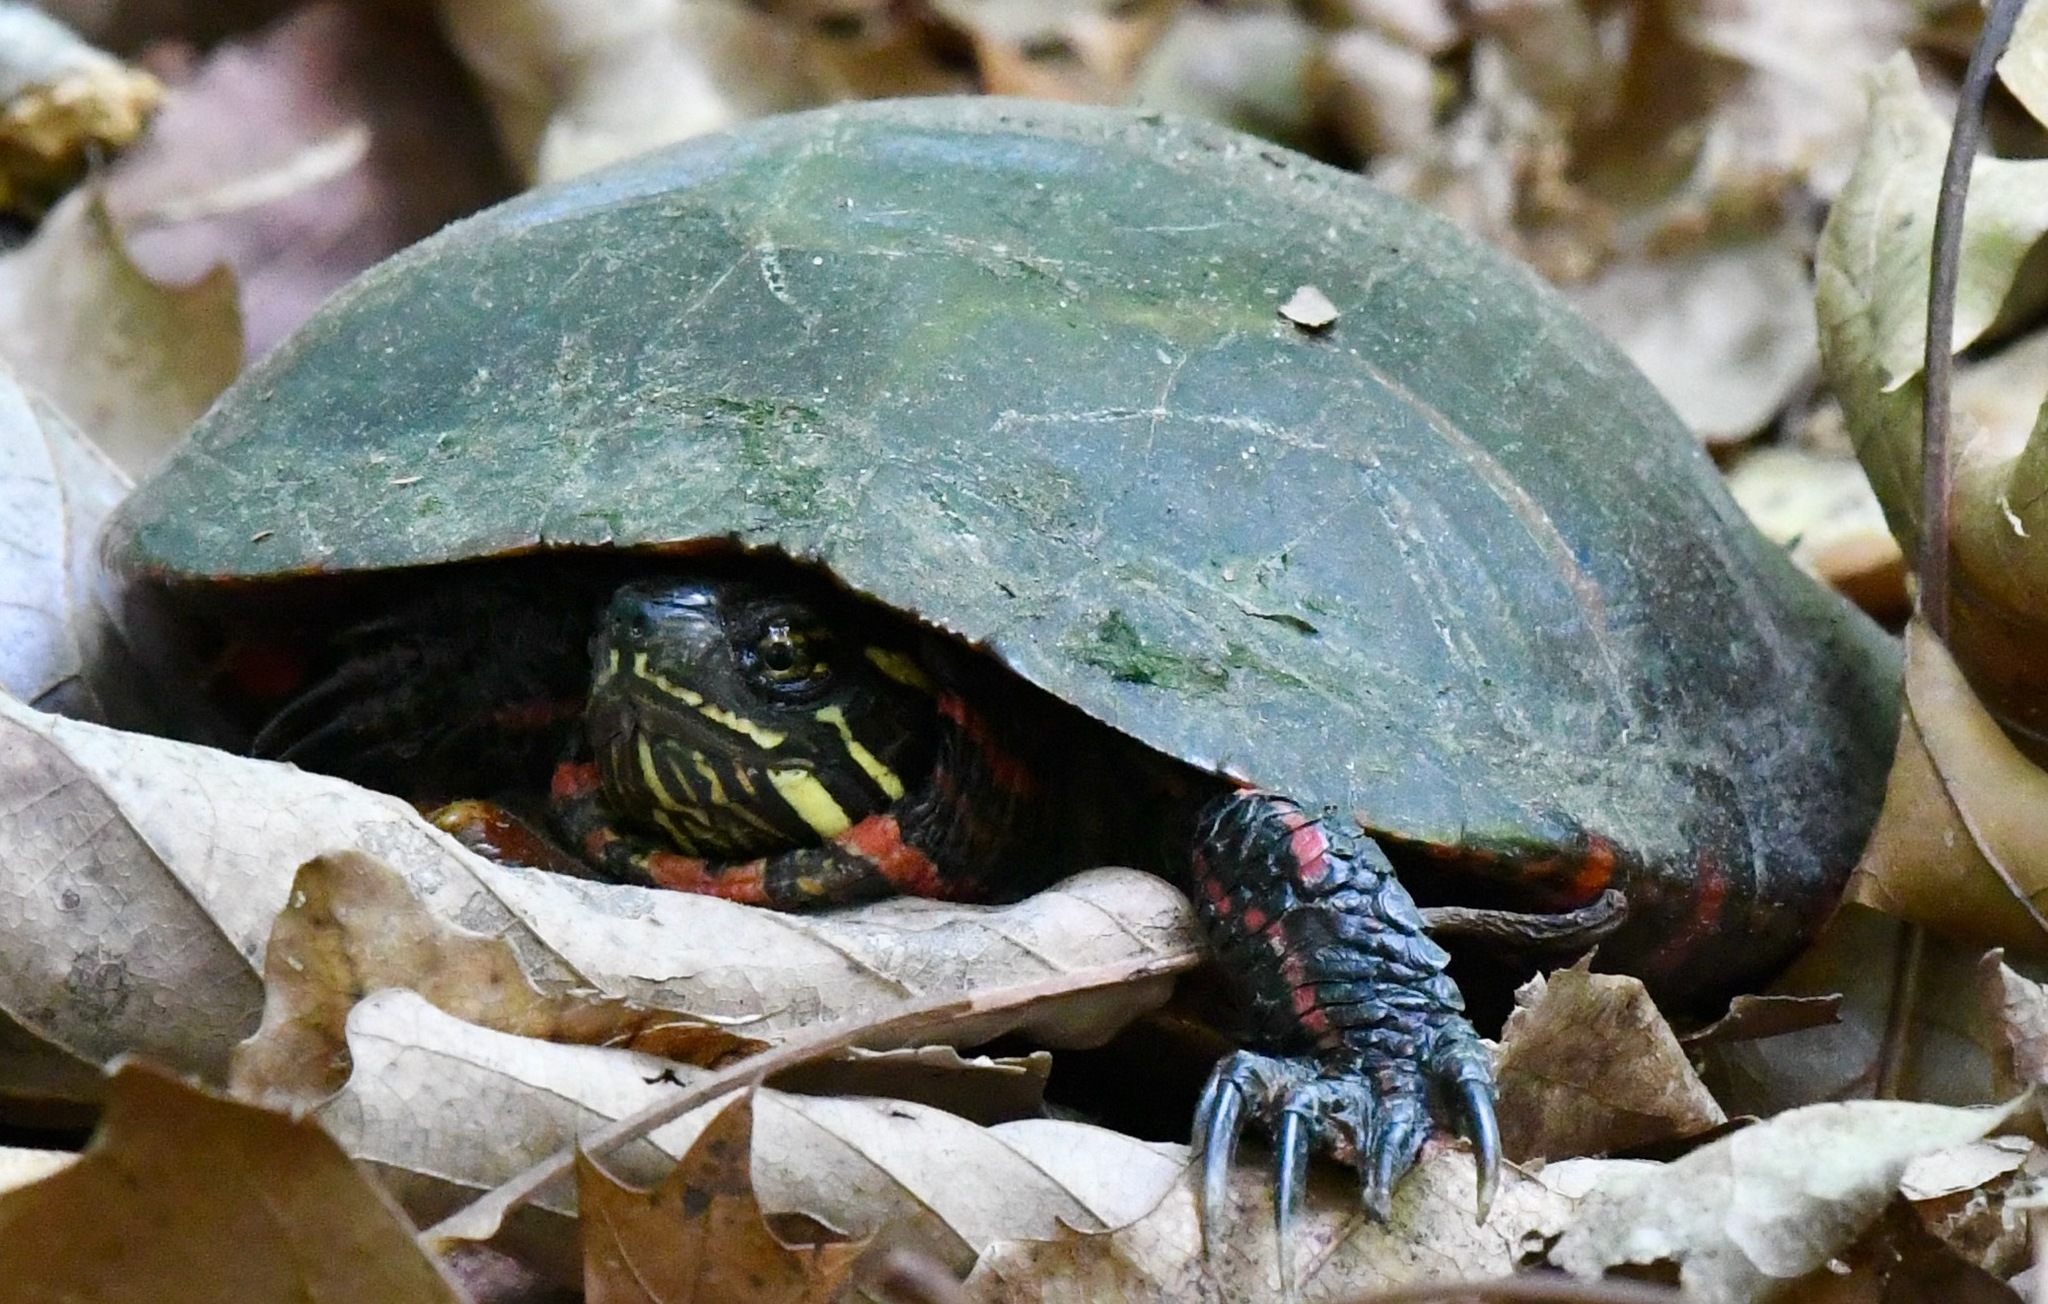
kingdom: Animalia
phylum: Chordata
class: Testudines
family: Emydidae
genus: Chrysemys
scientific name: Chrysemys picta
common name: Painted turtle
